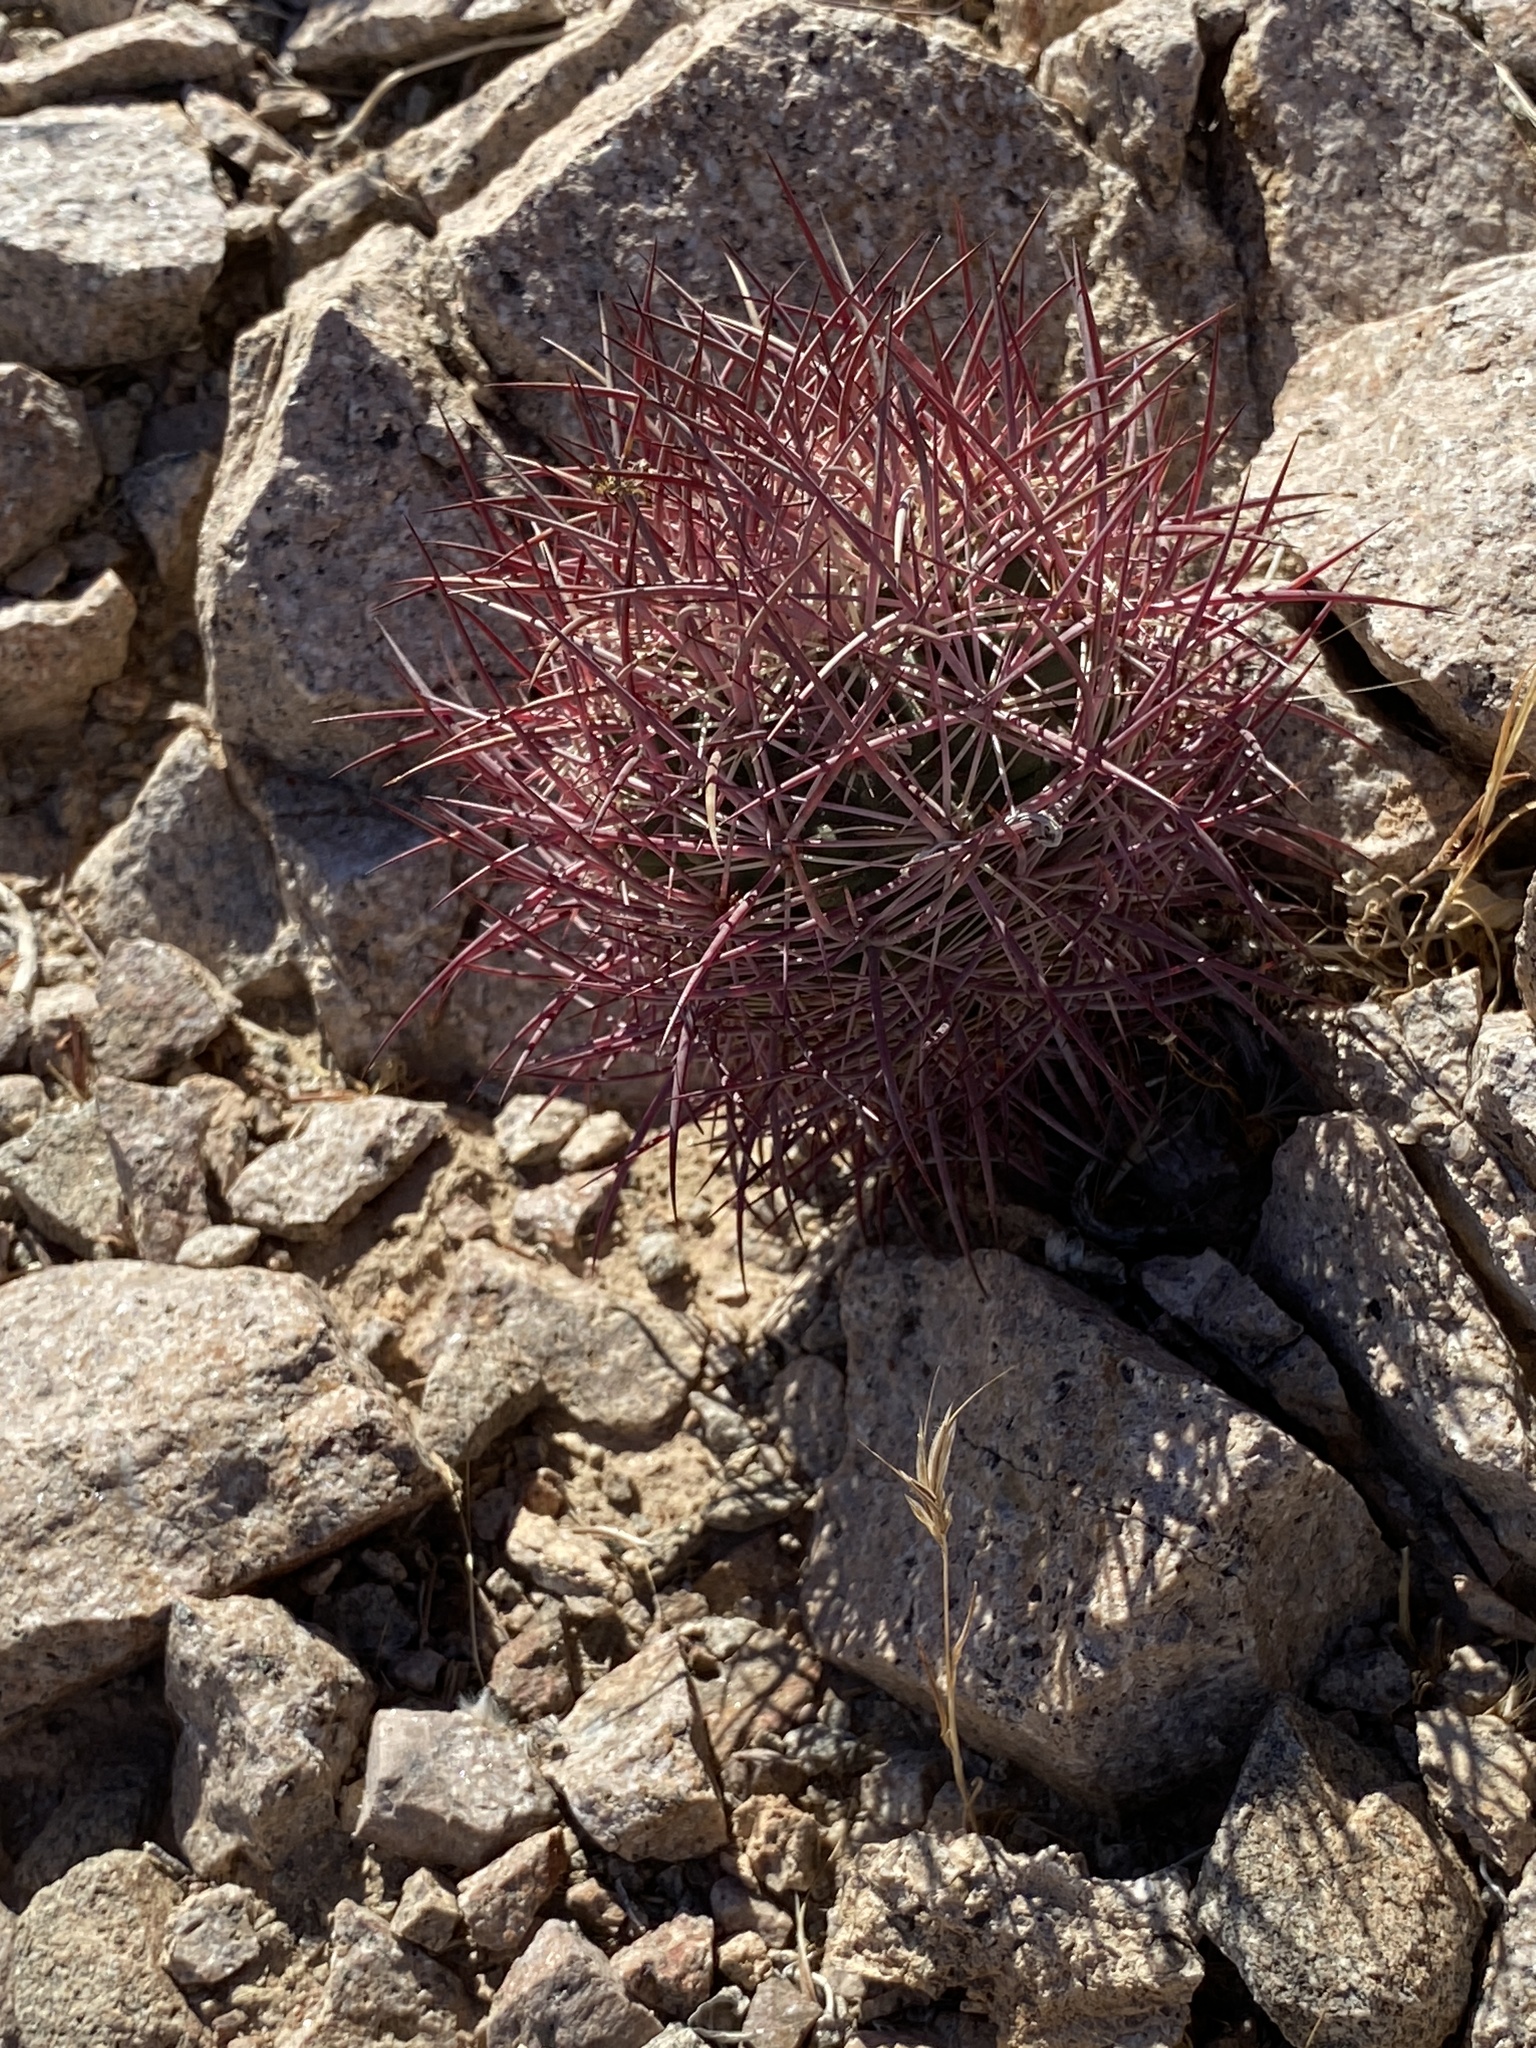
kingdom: Plantae
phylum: Tracheophyta
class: Magnoliopsida
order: Caryophyllales
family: Cactaceae
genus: Sclerocactus
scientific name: Sclerocactus johnsonii
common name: Eight-spine fishhook cactus
